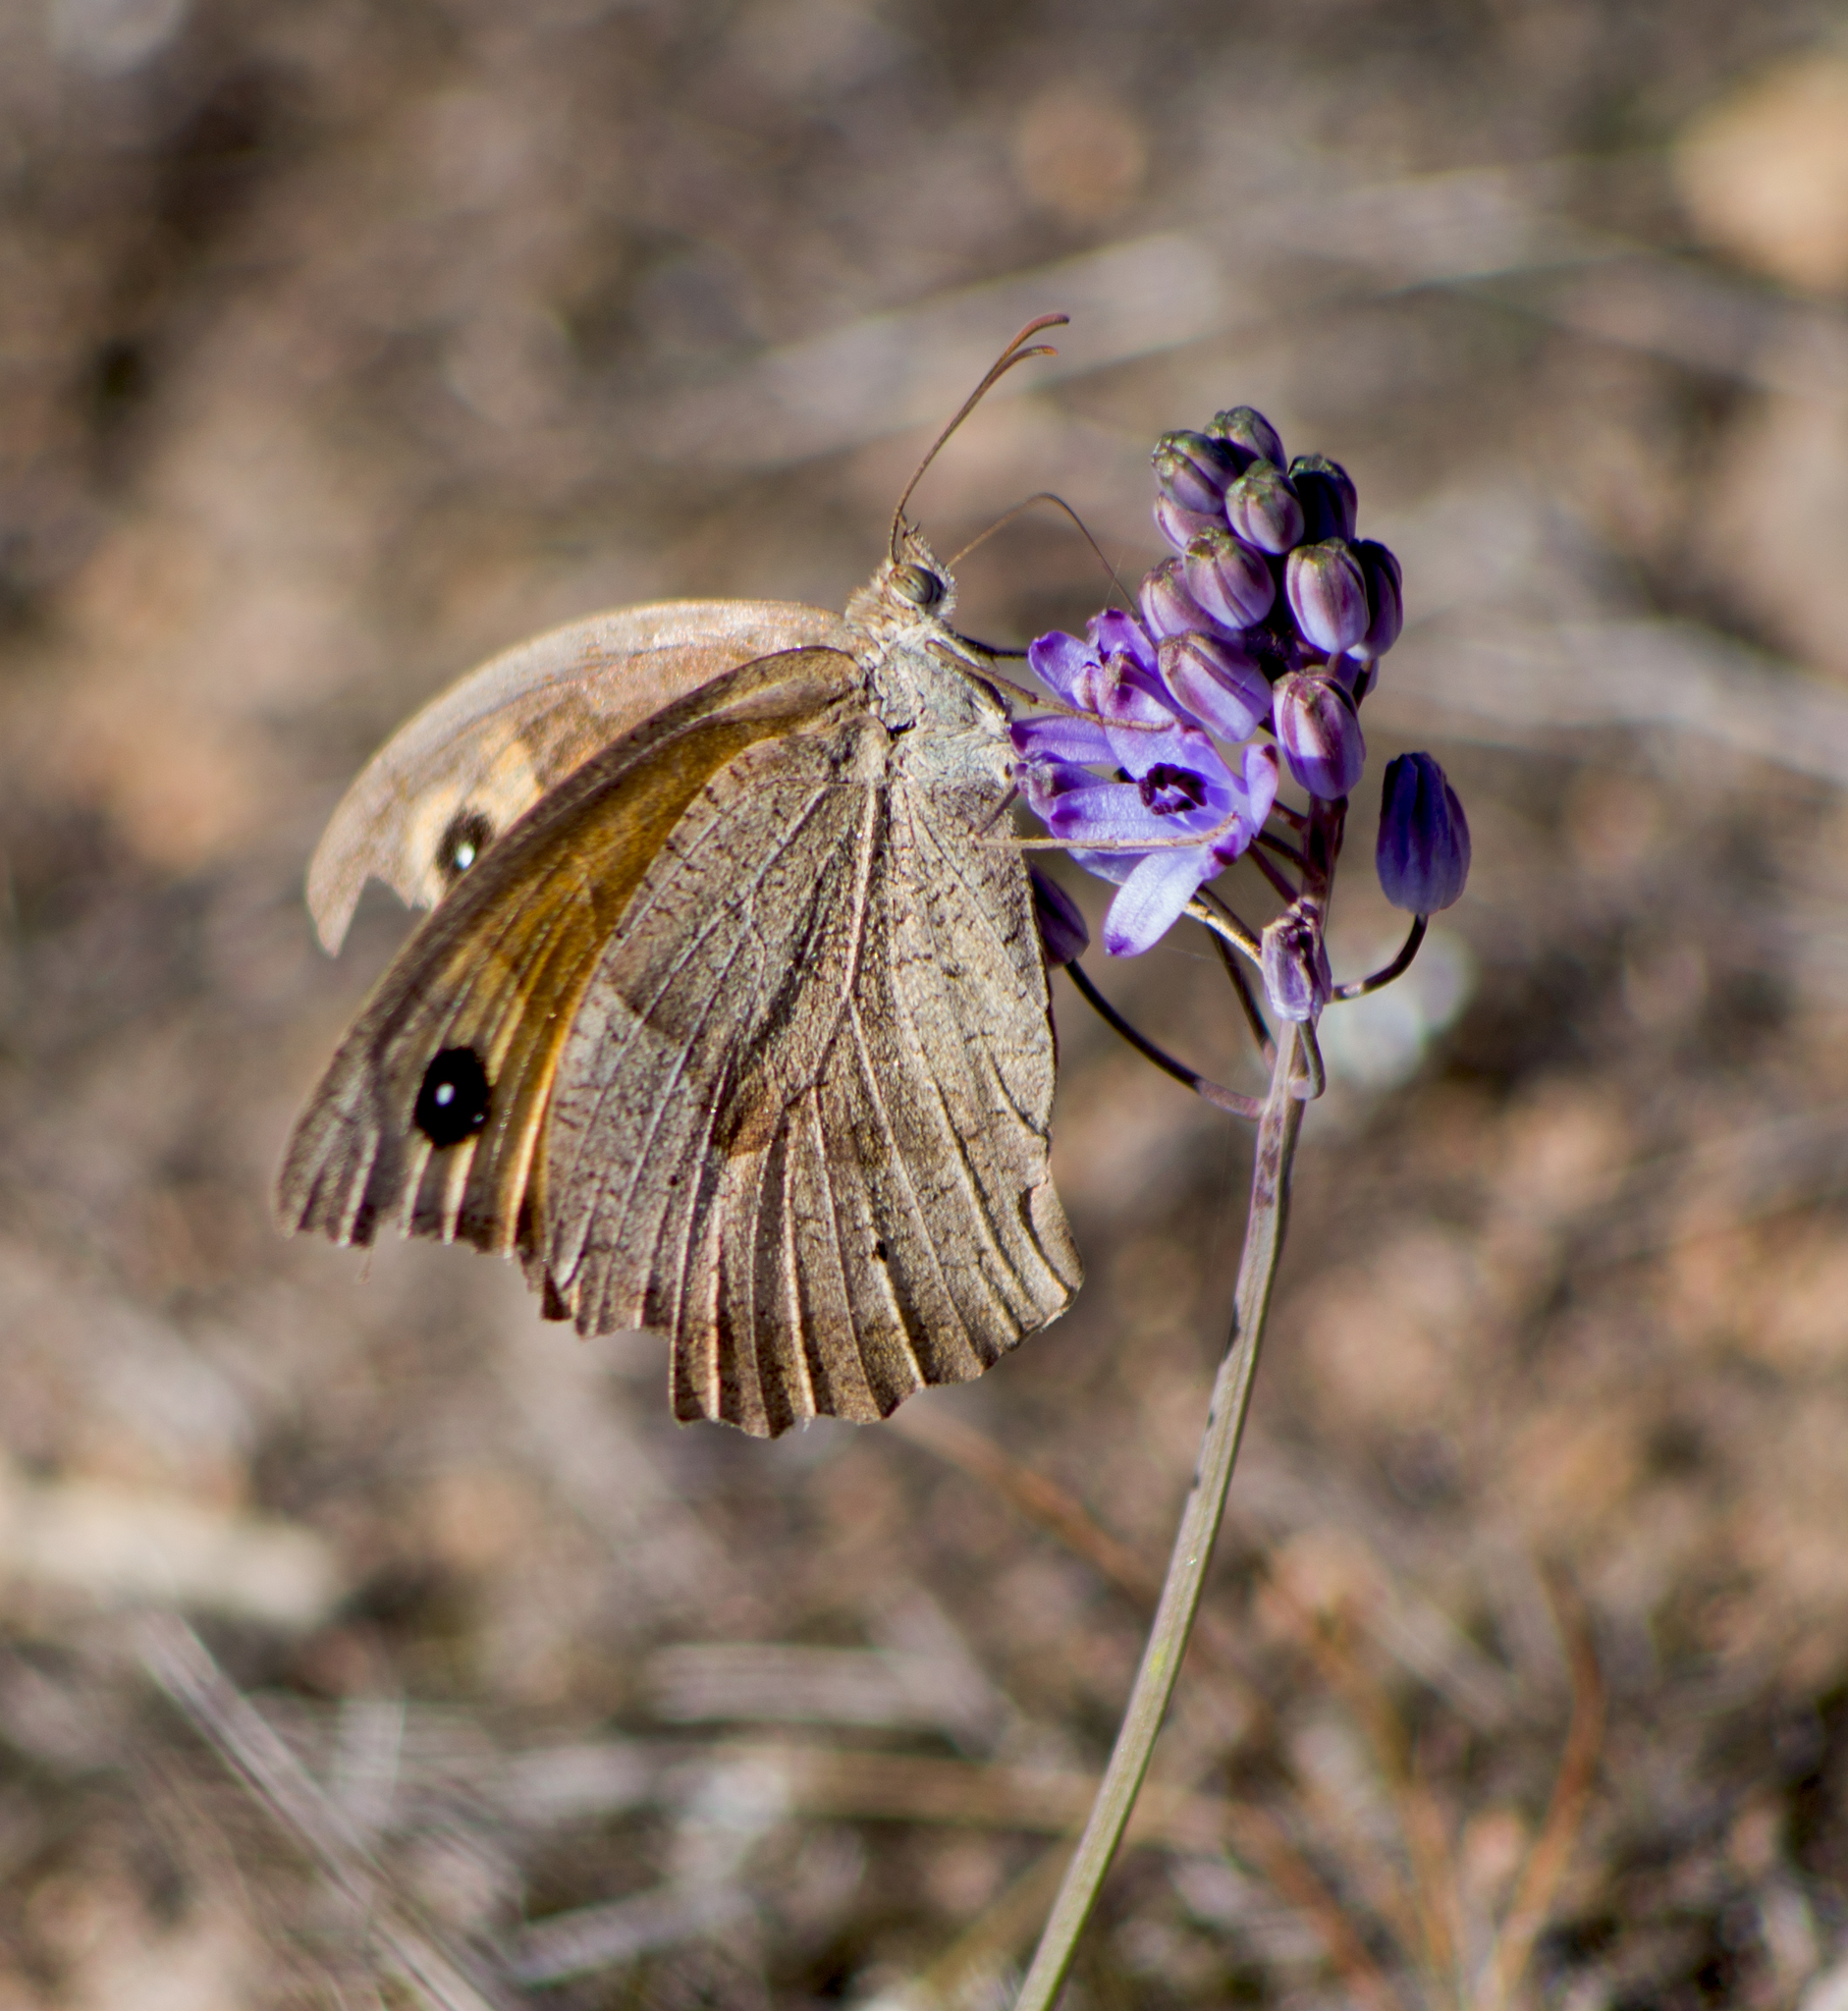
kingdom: Animalia
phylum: Arthropoda
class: Insecta
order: Lepidoptera
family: Nymphalidae
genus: Maniola
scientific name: Maniola jurtina
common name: Meadow brown
